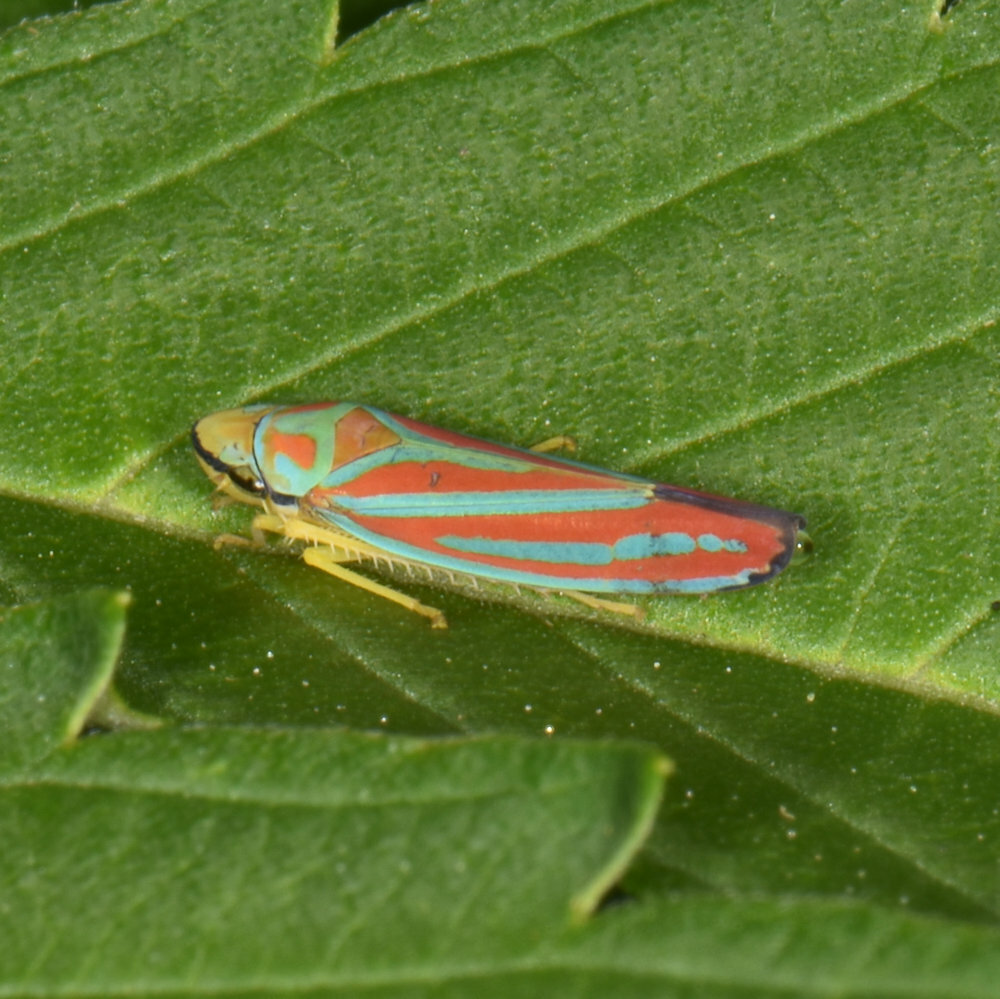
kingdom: Animalia
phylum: Arthropoda
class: Insecta
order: Hemiptera
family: Cicadellidae
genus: Graphocephala
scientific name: Graphocephala coccinea
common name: Candy-striped leafhopper
